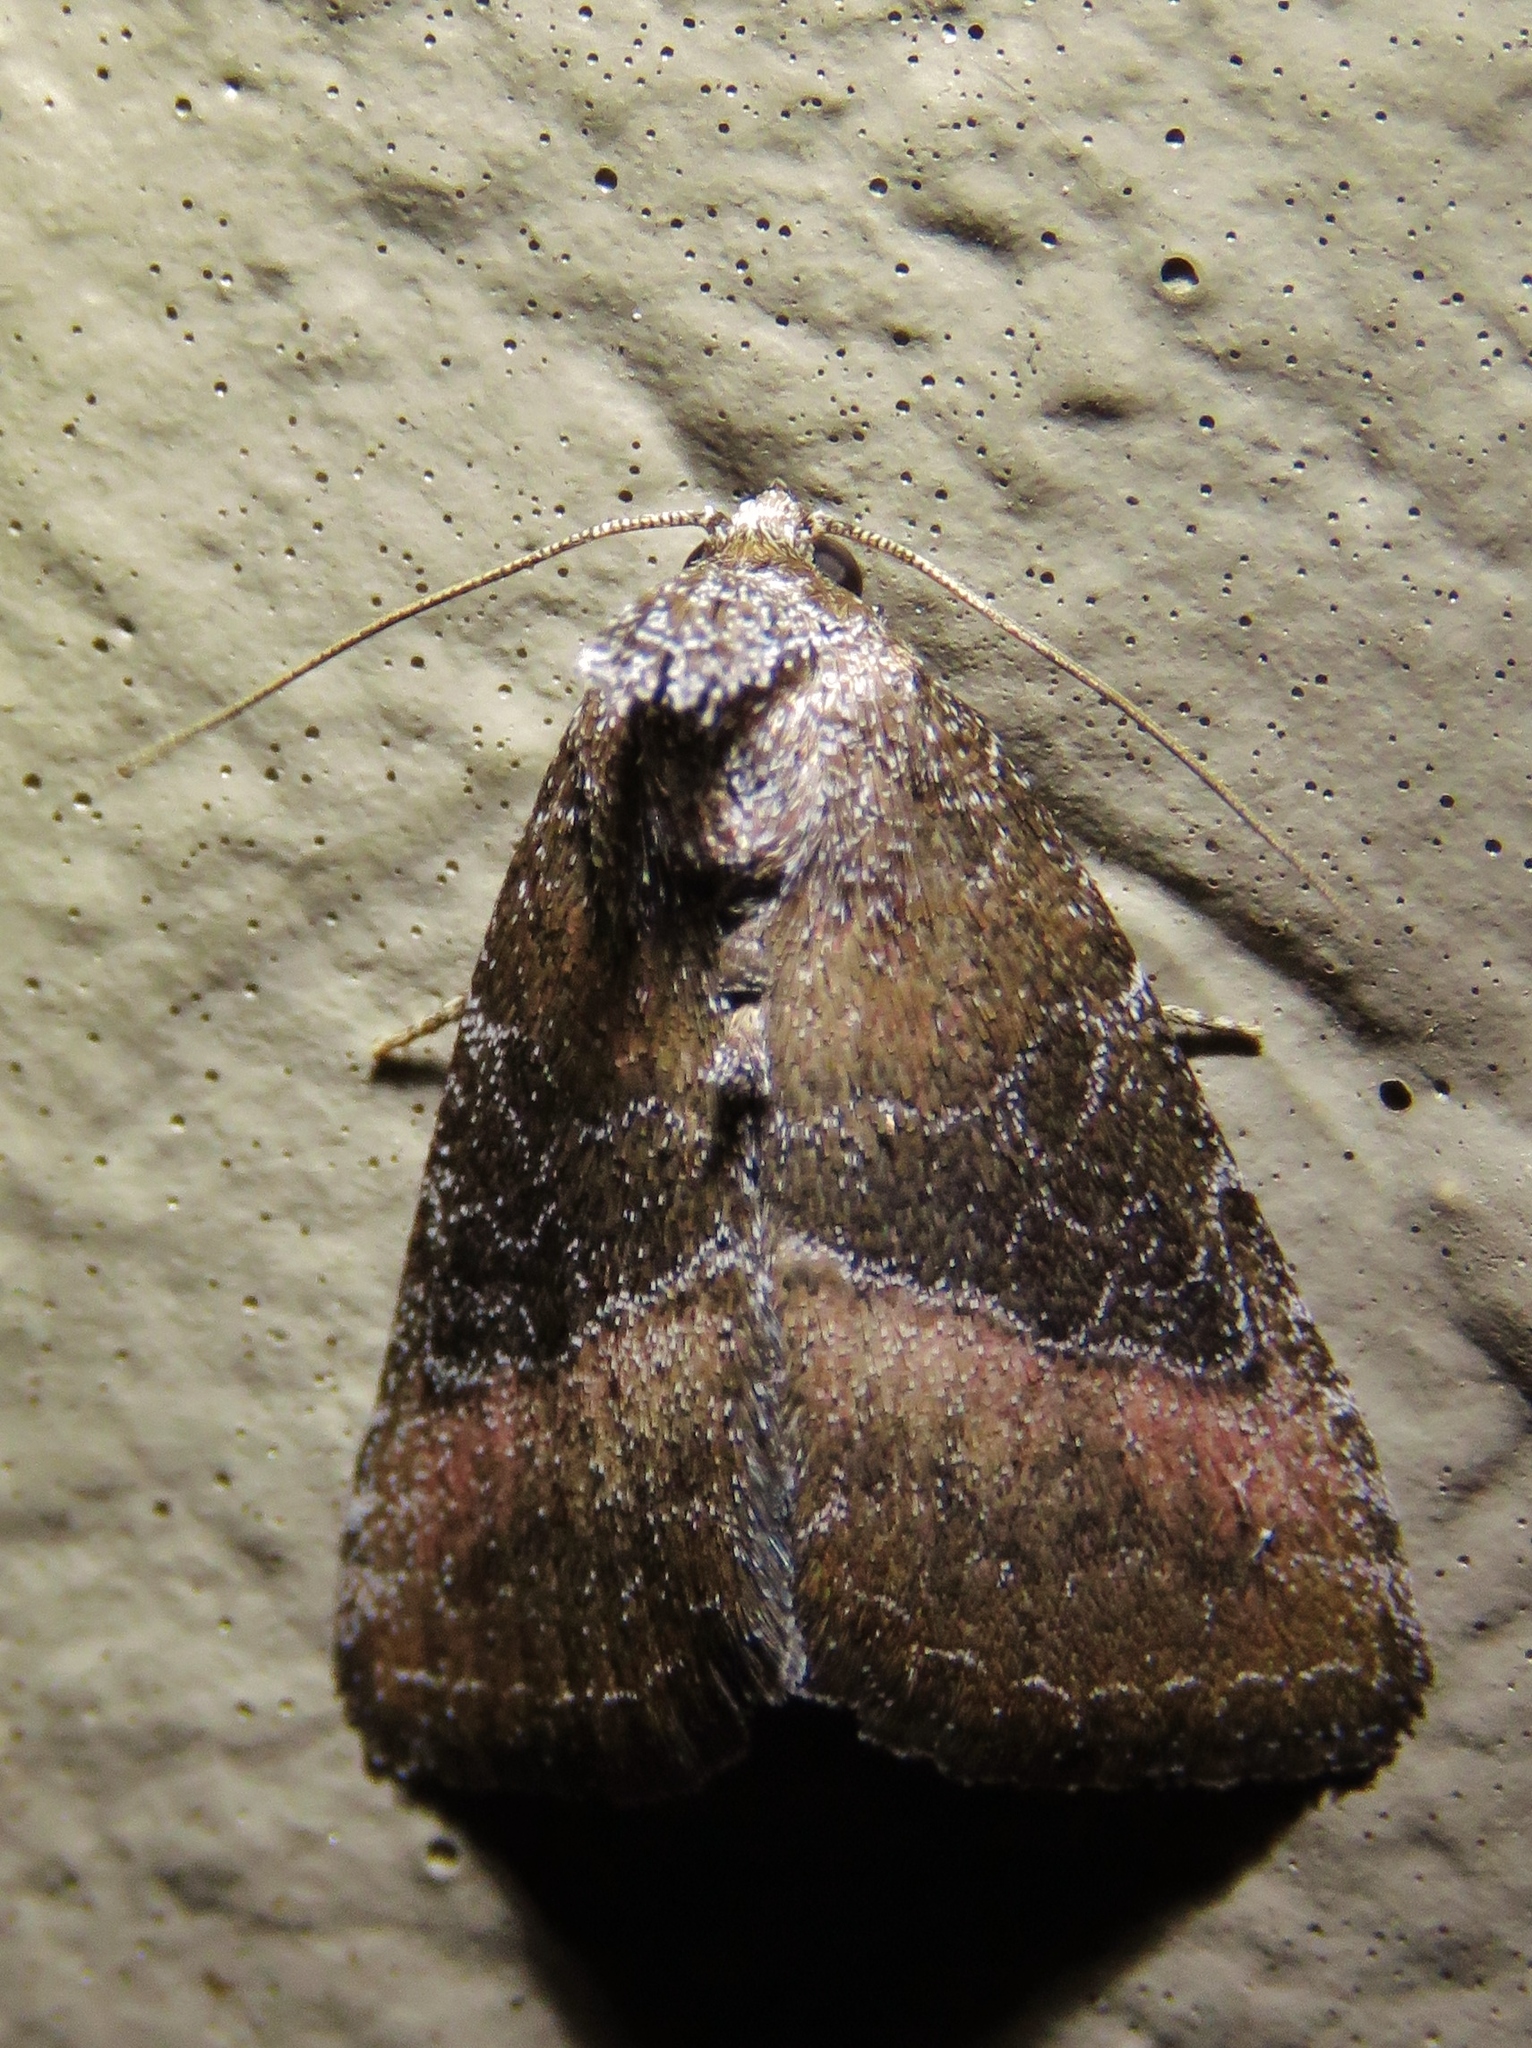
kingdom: Animalia
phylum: Arthropoda
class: Insecta
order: Lepidoptera
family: Noctuidae
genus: Ogdoconta
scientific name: Ogdoconta cinereola
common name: Common pinkband
